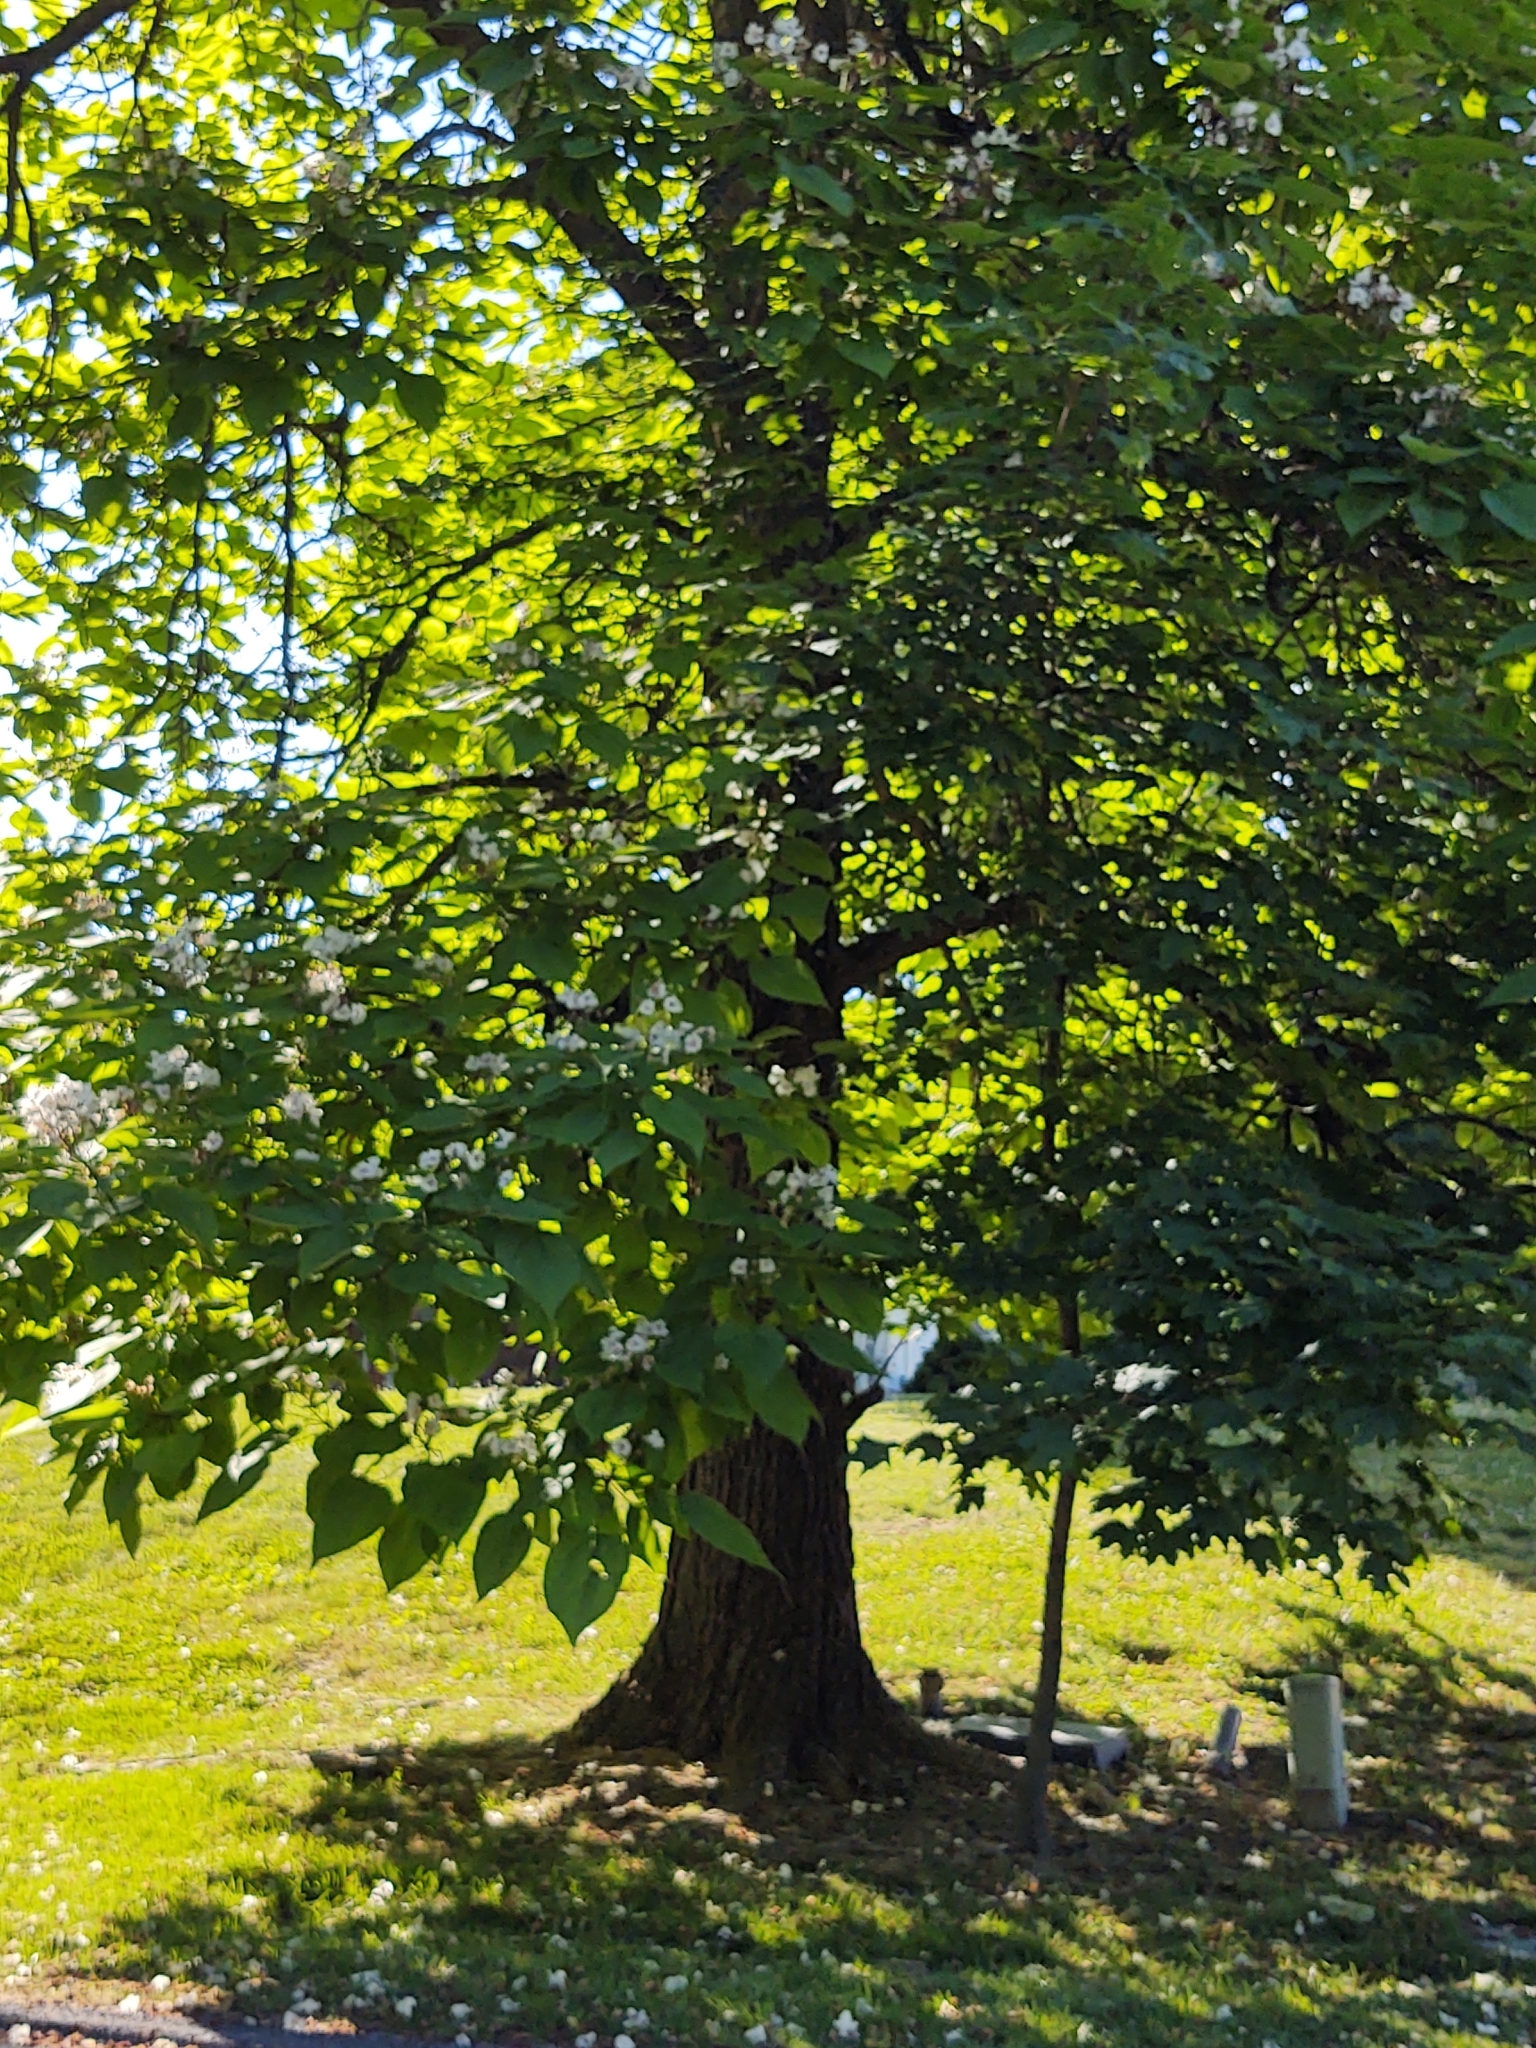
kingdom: Plantae
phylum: Tracheophyta
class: Magnoliopsida
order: Lamiales
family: Bignoniaceae
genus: Catalpa
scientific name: Catalpa speciosa
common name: Northern catalpa
